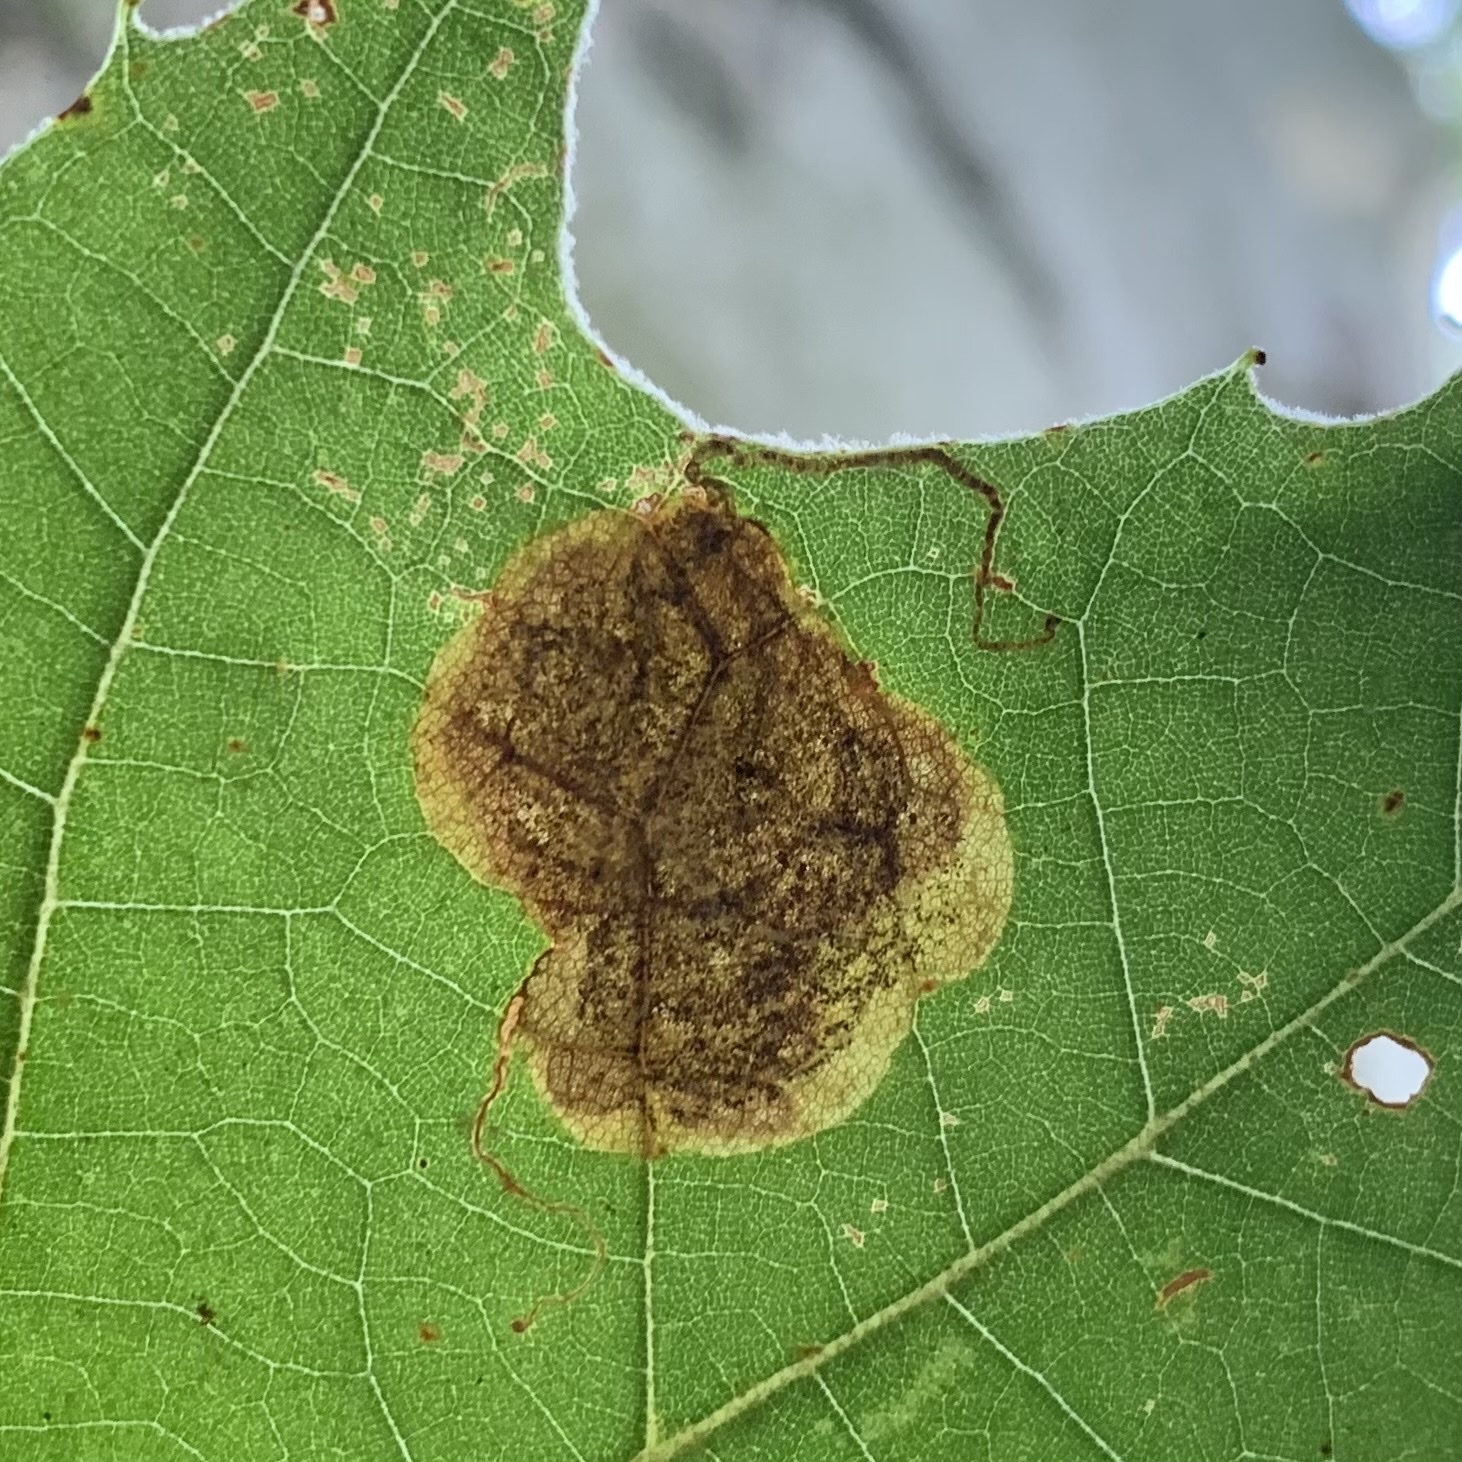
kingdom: Animalia
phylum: Arthropoda
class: Insecta
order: Lepidoptera
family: Nepticulidae
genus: Ectoedemia
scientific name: Ectoedemia platanella
